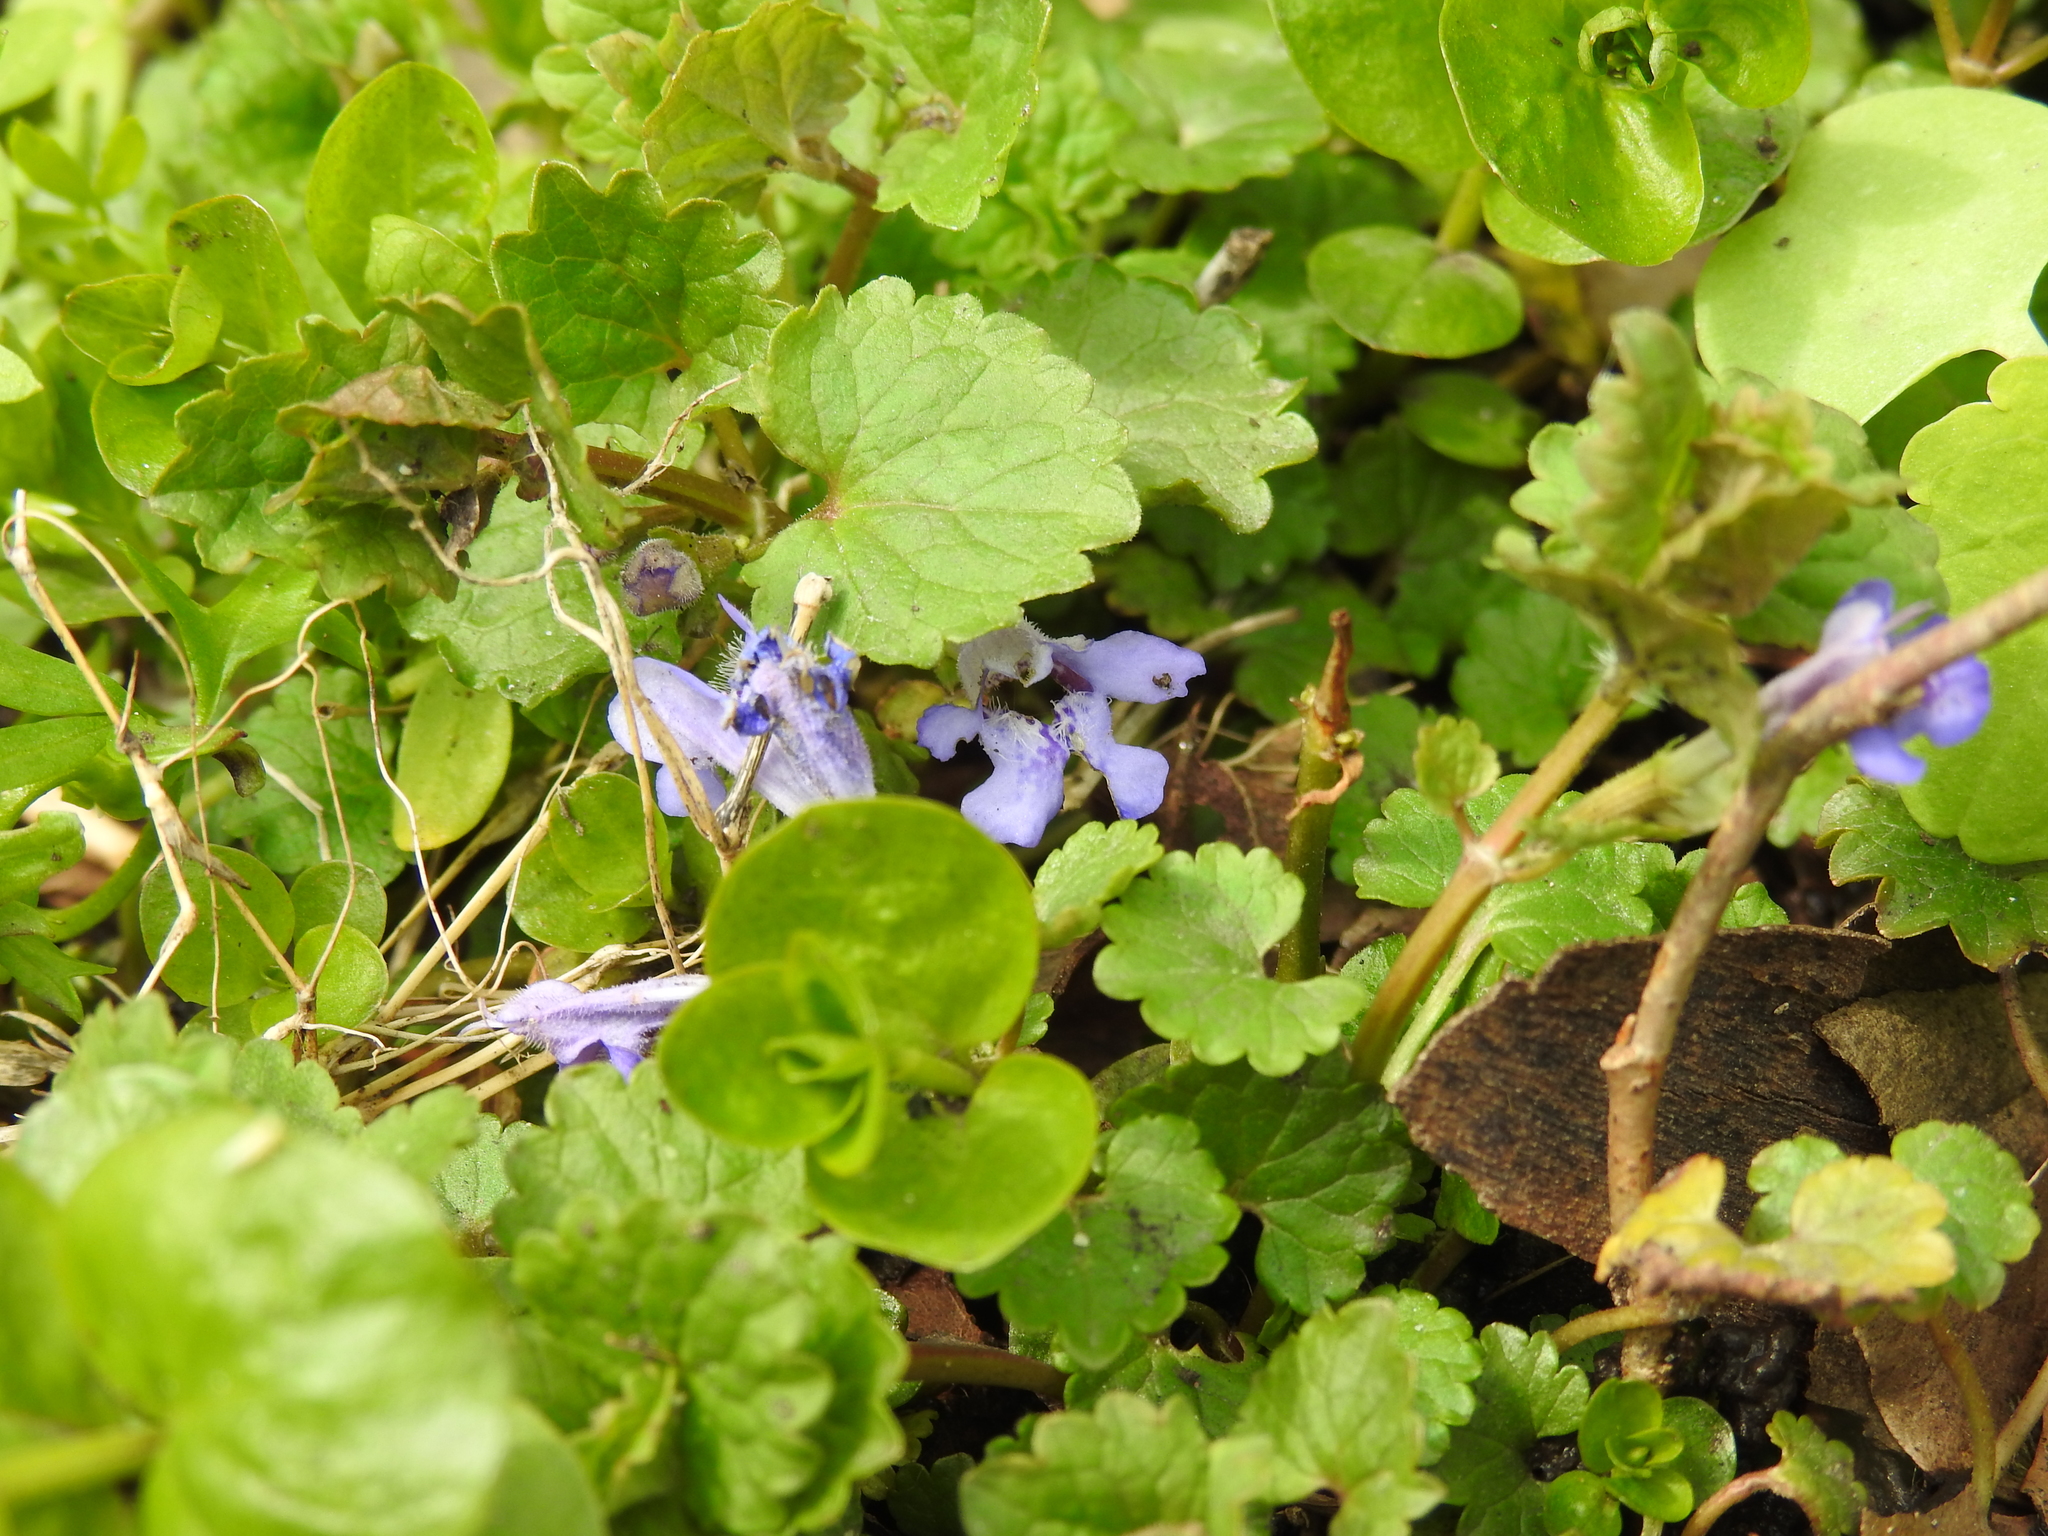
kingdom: Plantae
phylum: Tracheophyta
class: Magnoliopsida
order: Lamiales
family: Lamiaceae
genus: Glechoma
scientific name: Glechoma hederacea
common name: Ground ivy
